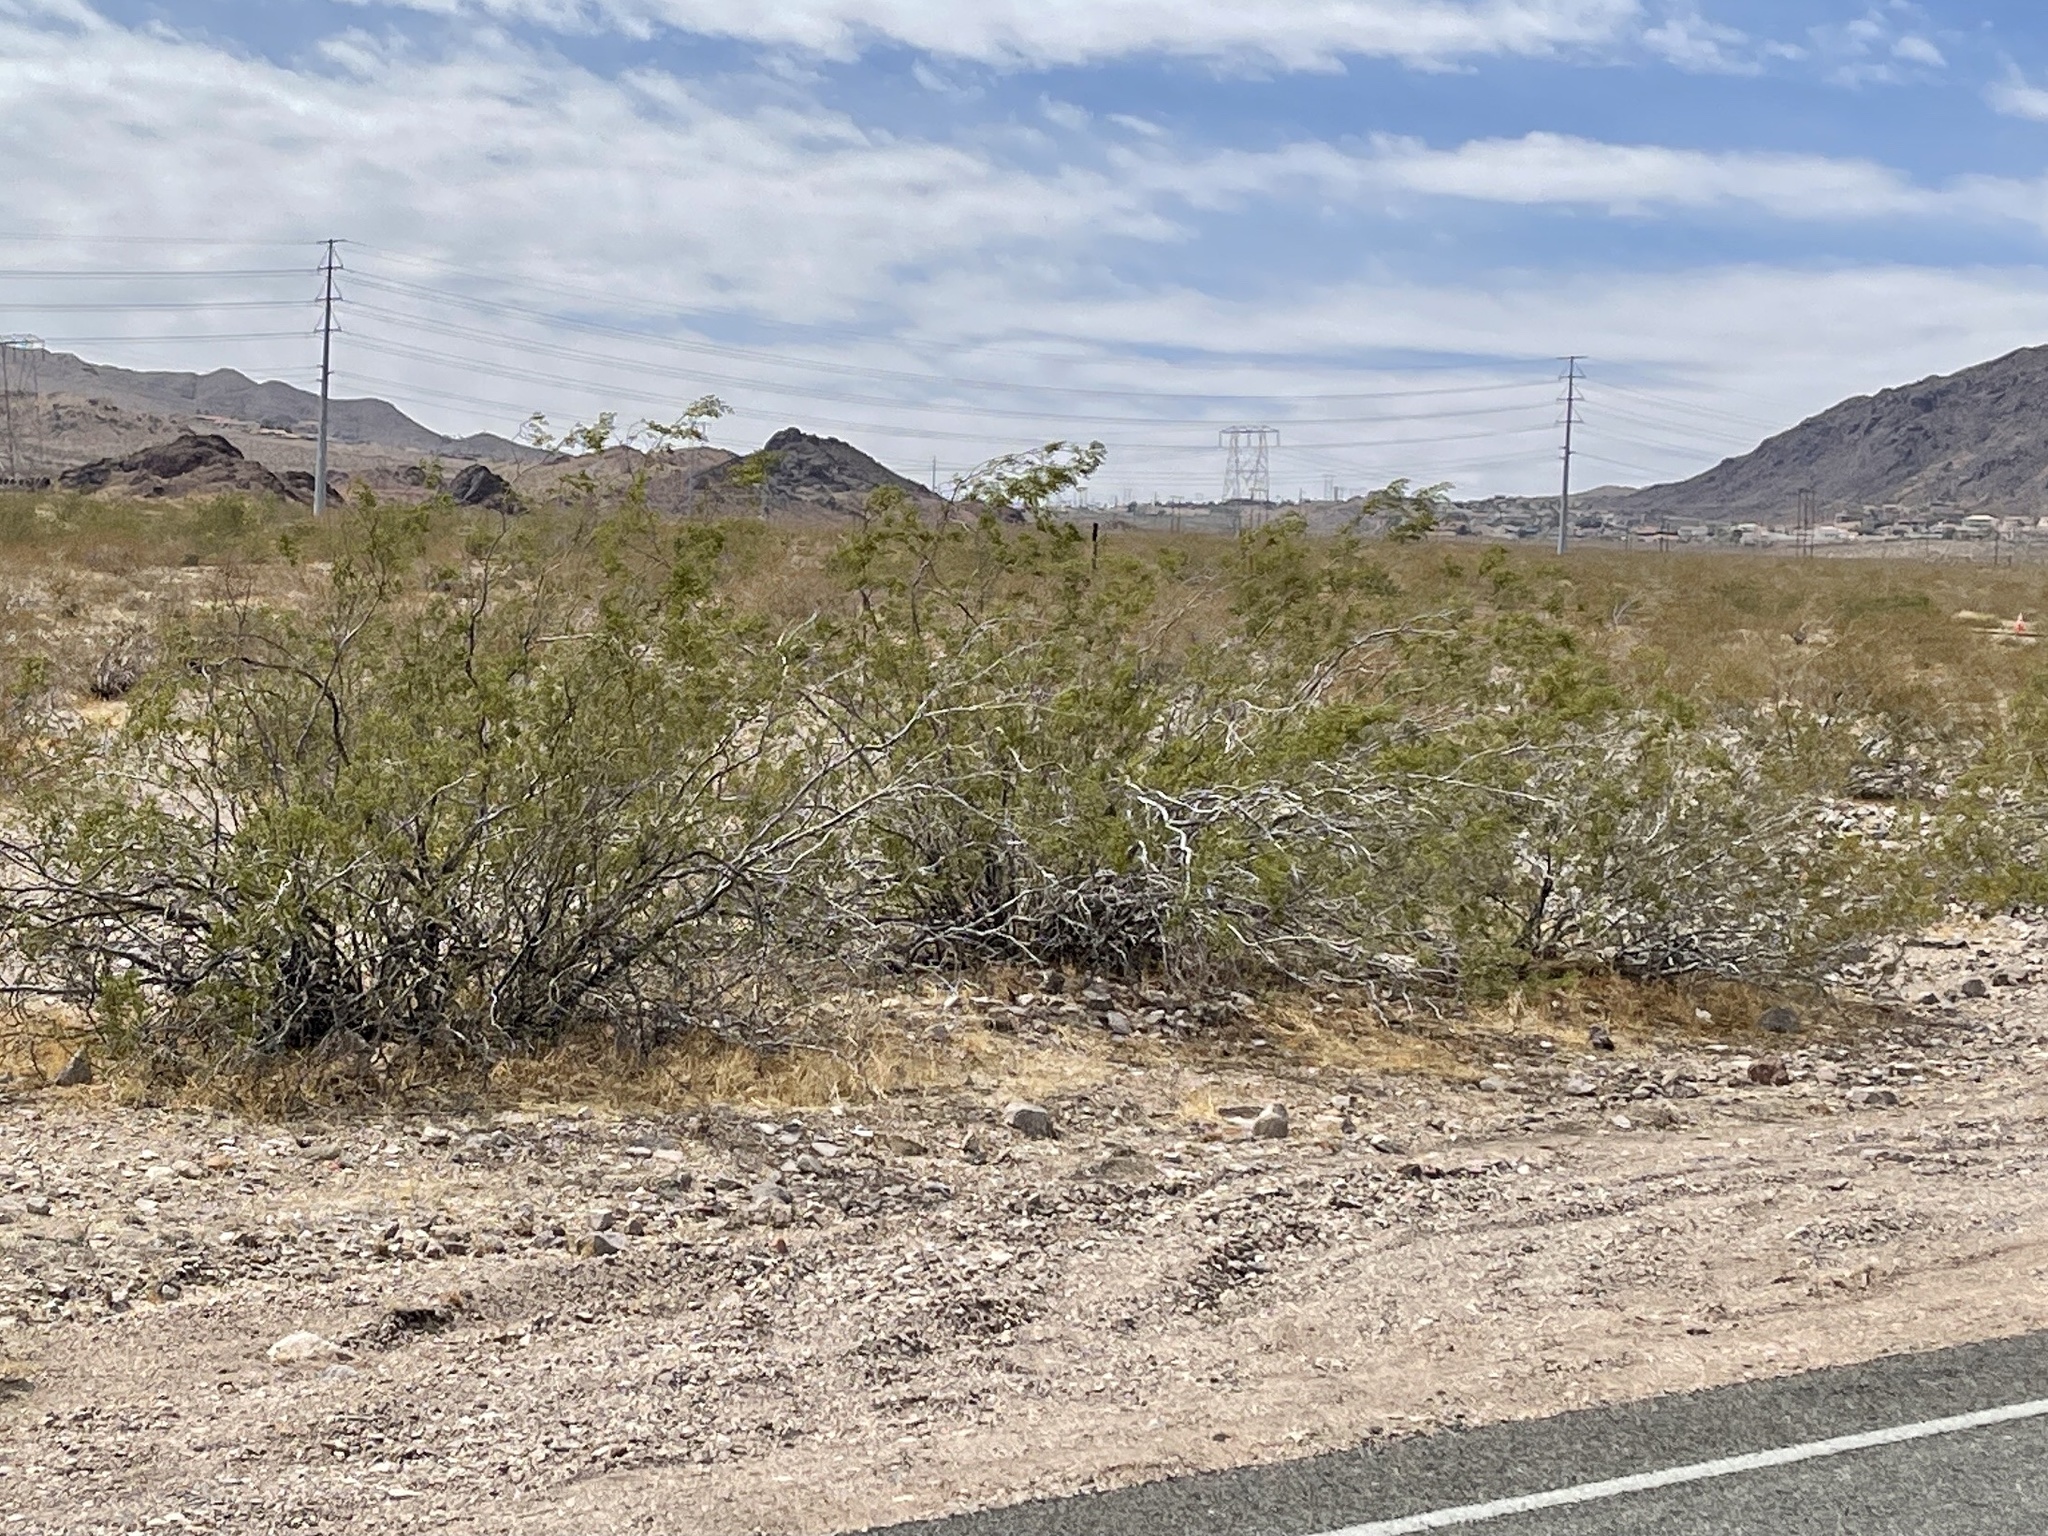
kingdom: Plantae
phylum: Tracheophyta
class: Magnoliopsida
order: Zygophyllales
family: Zygophyllaceae
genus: Larrea
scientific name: Larrea tridentata
